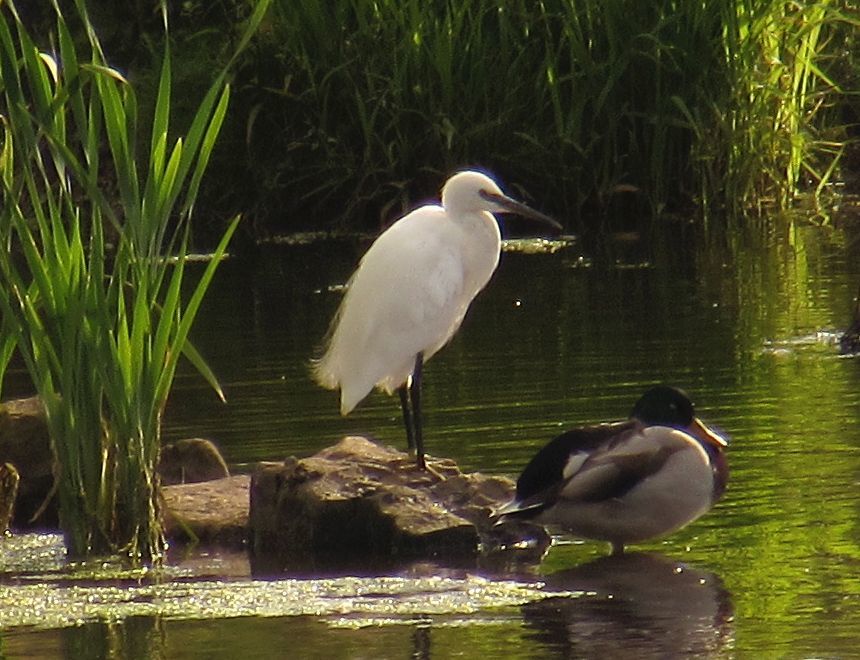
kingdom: Animalia
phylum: Chordata
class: Aves
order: Pelecaniformes
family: Ardeidae
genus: Egretta
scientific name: Egretta garzetta
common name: Little egret
